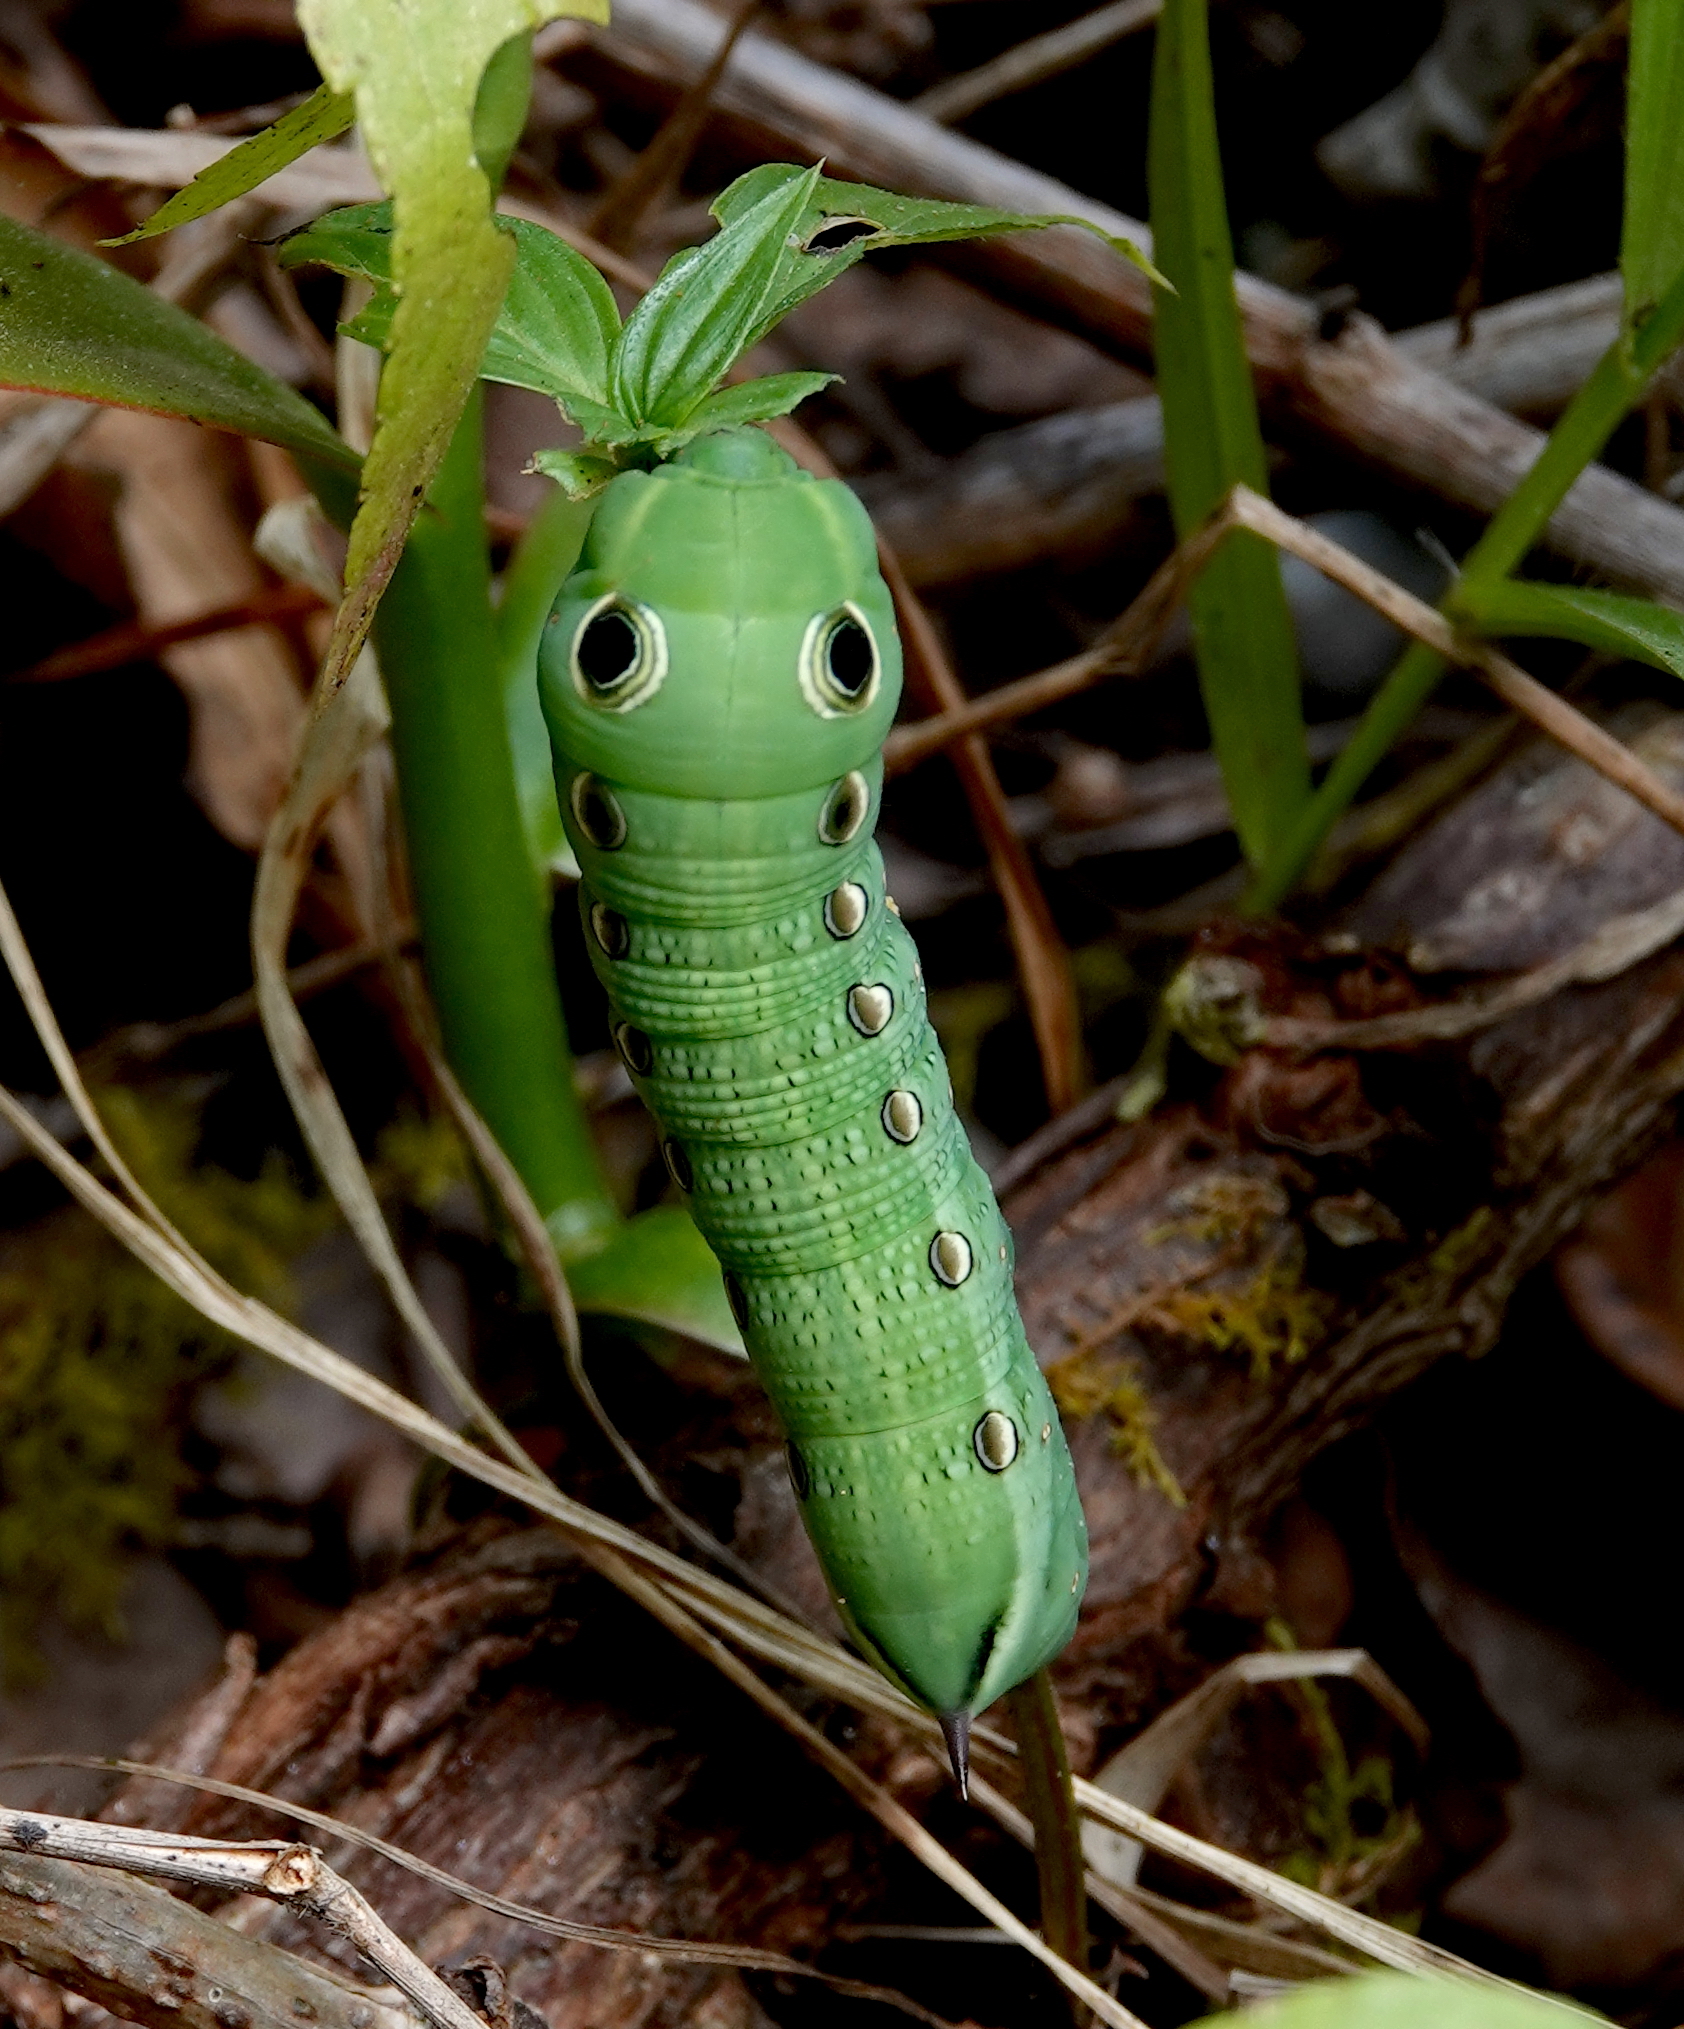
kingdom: Animalia
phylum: Arthropoda
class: Insecta
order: Lepidoptera
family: Sphingidae
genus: Xylophanes
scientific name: Xylophanes tersa
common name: Tersa sphinx
